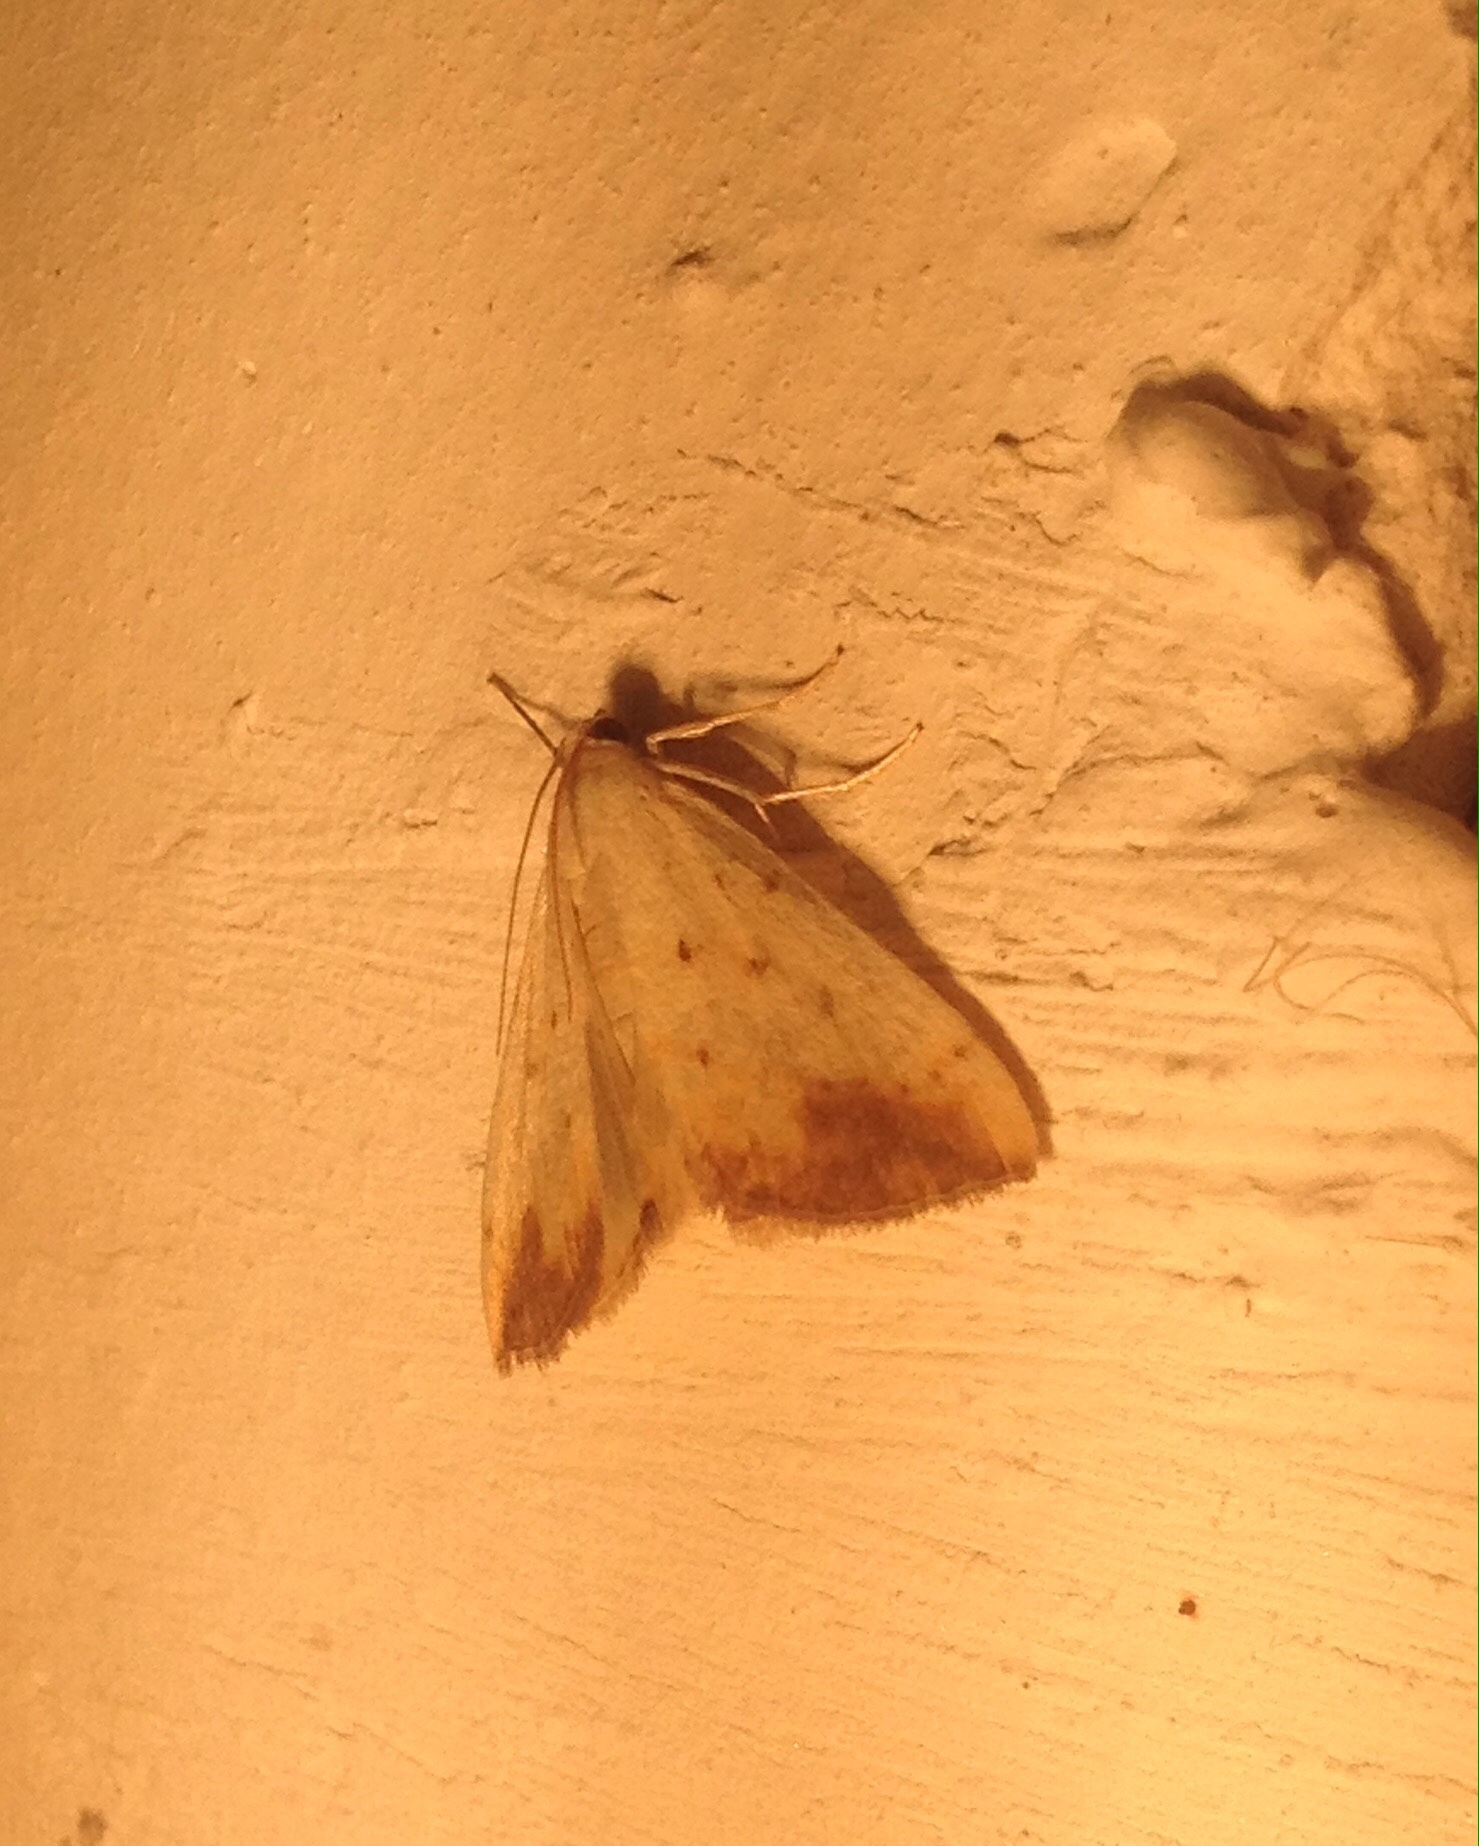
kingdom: Animalia
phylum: Arthropoda
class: Insecta
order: Lepidoptera
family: Crambidae
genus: Evergestis
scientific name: Evergestis extimalis
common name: Marbled yellow pearl
